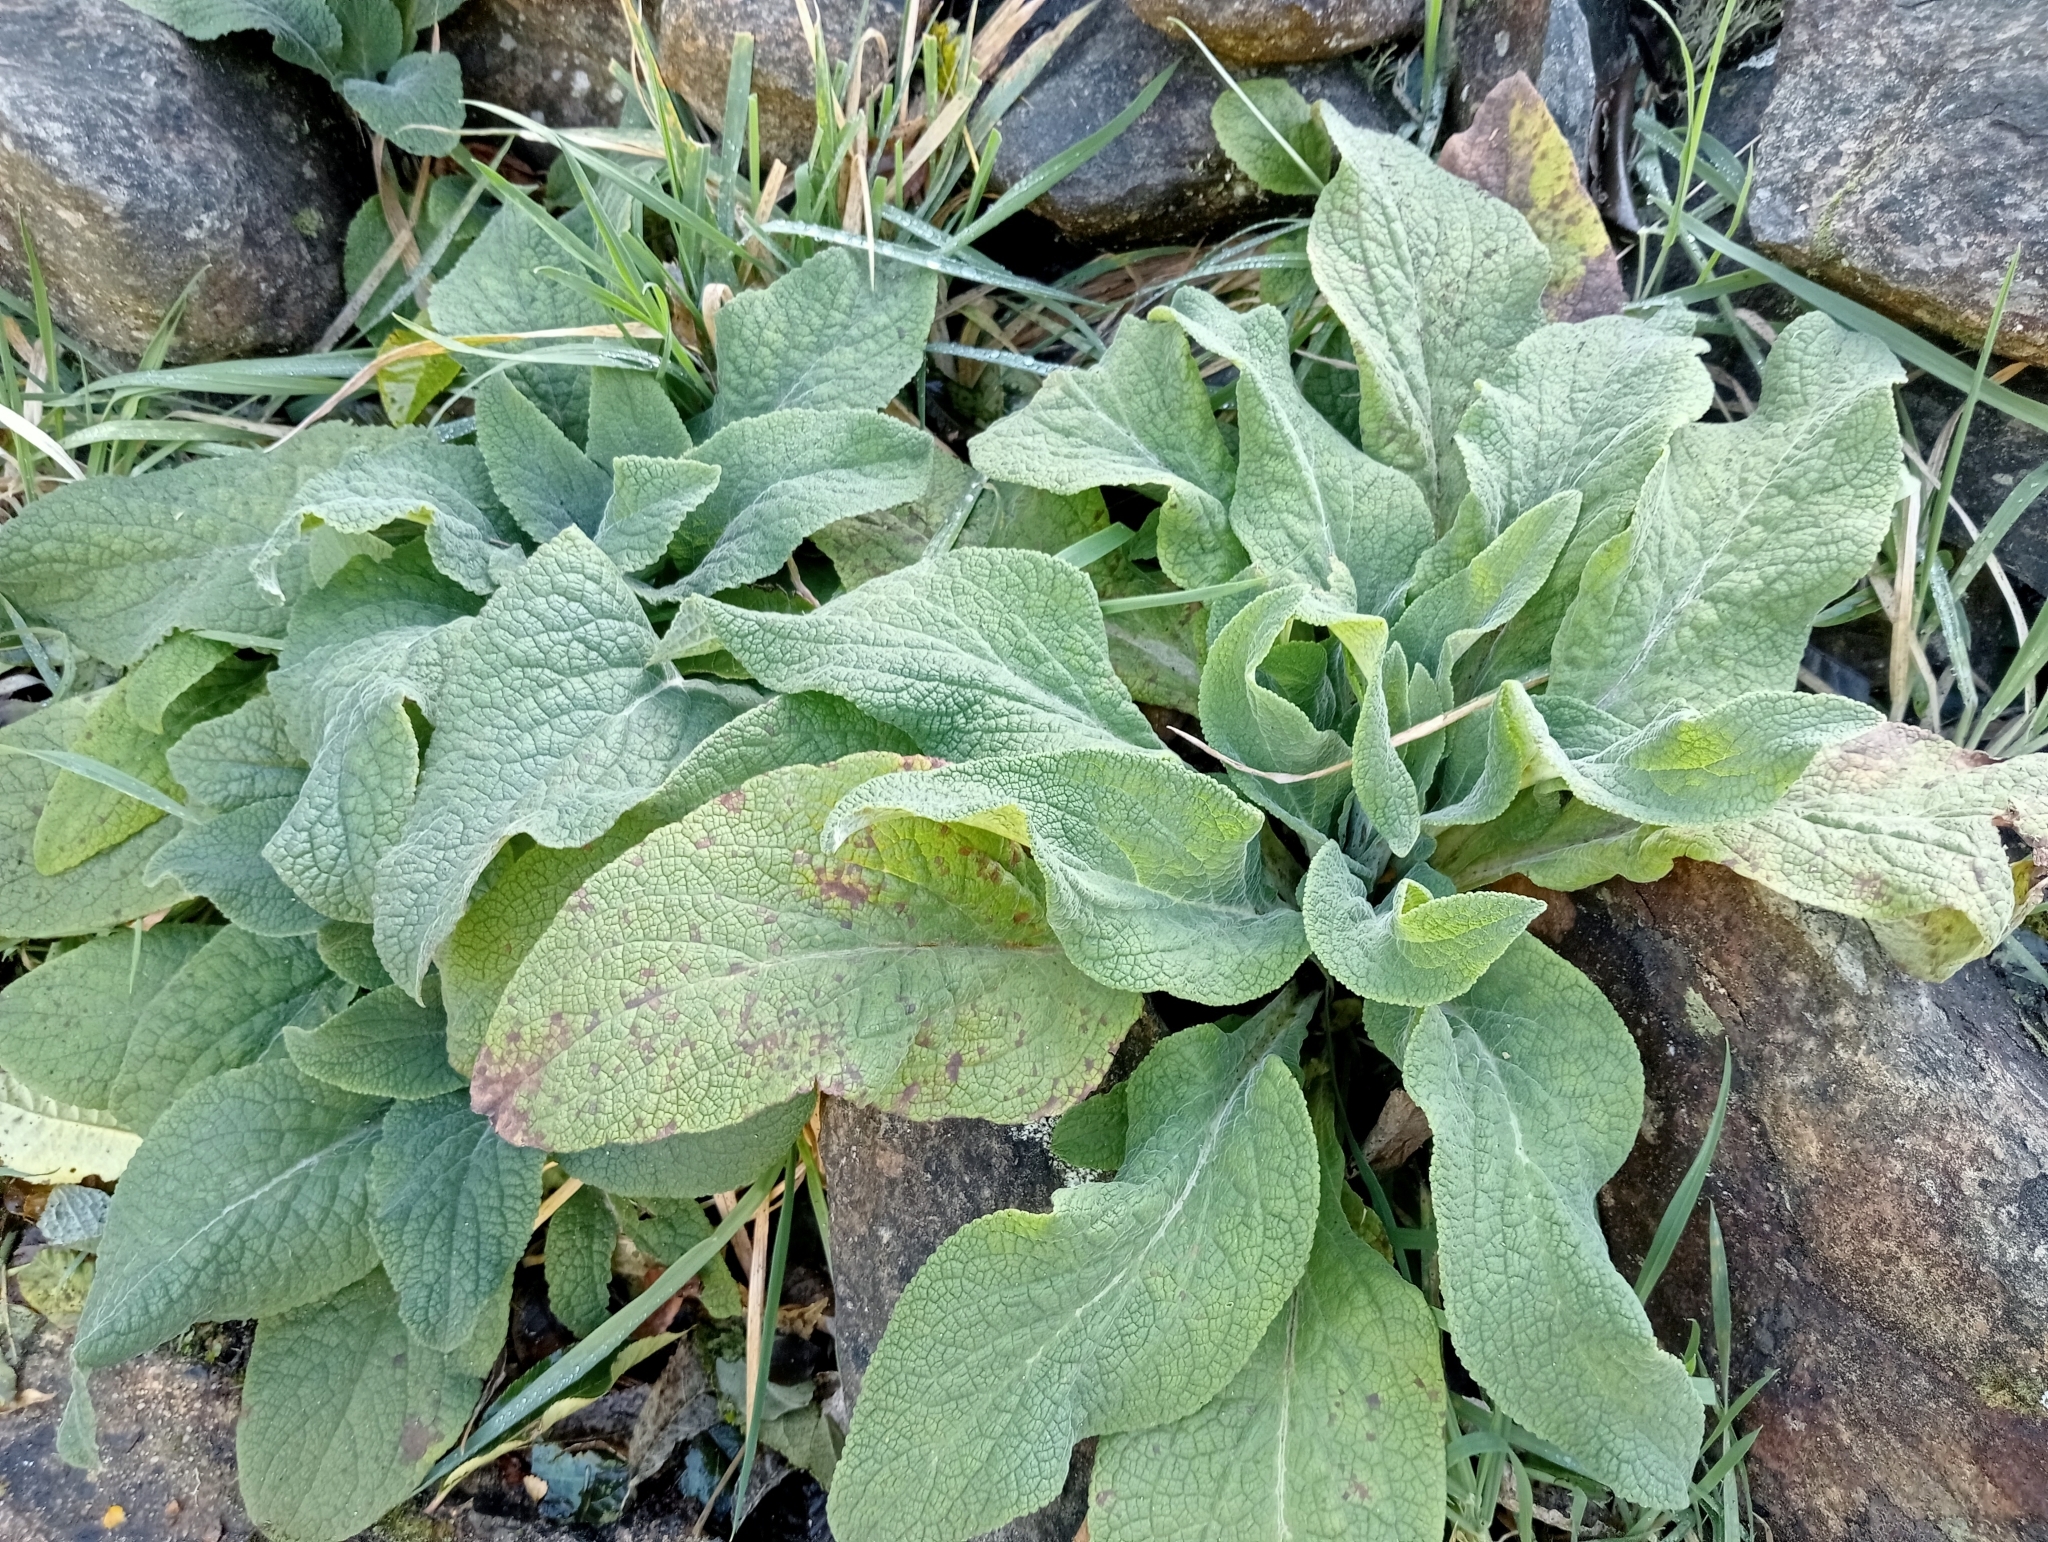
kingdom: Plantae
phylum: Tracheophyta
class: Magnoliopsida
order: Lamiales
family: Plantaginaceae
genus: Digitalis
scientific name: Digitalis purpurea
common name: Foxglove
